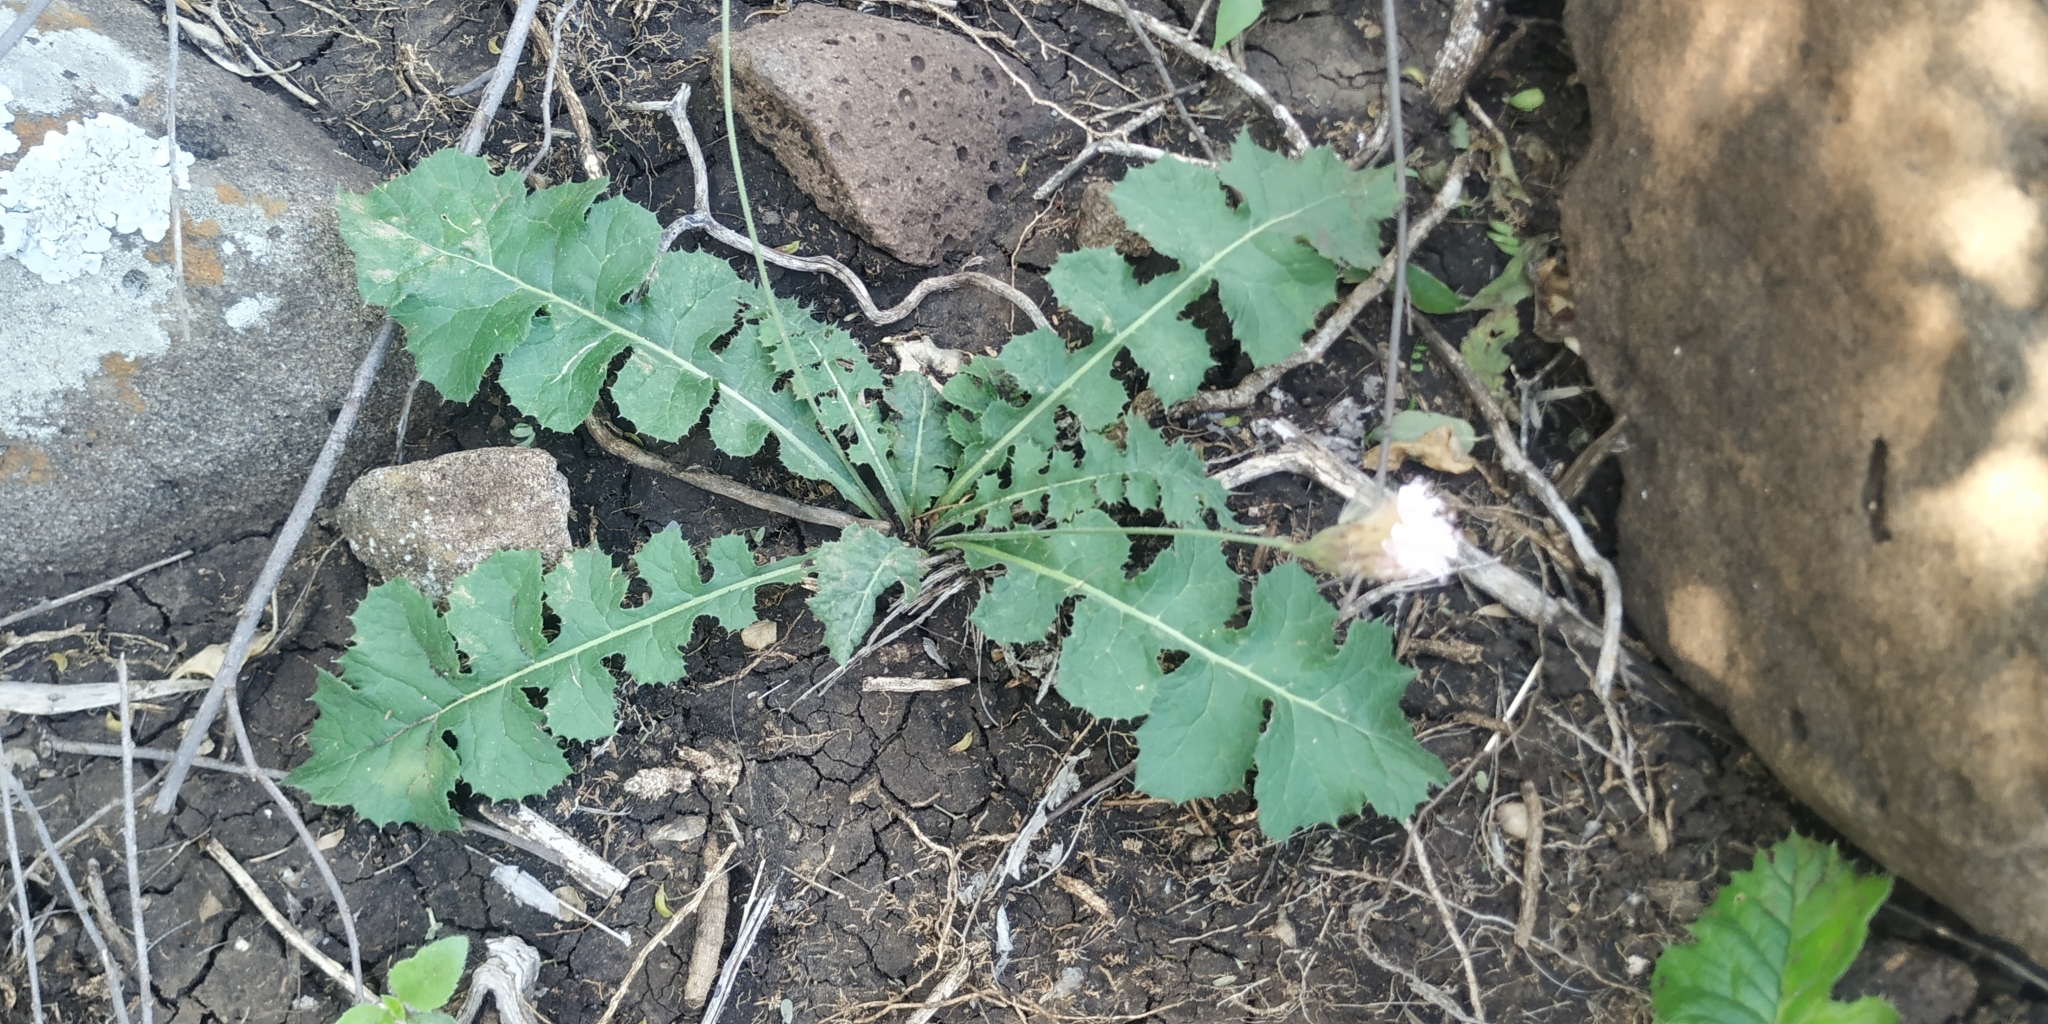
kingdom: Plantae
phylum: Tracheophyta
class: Magnoliopsida
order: Asterales
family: Asteraceae
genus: Acourtia
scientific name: Acourtia runcinata
